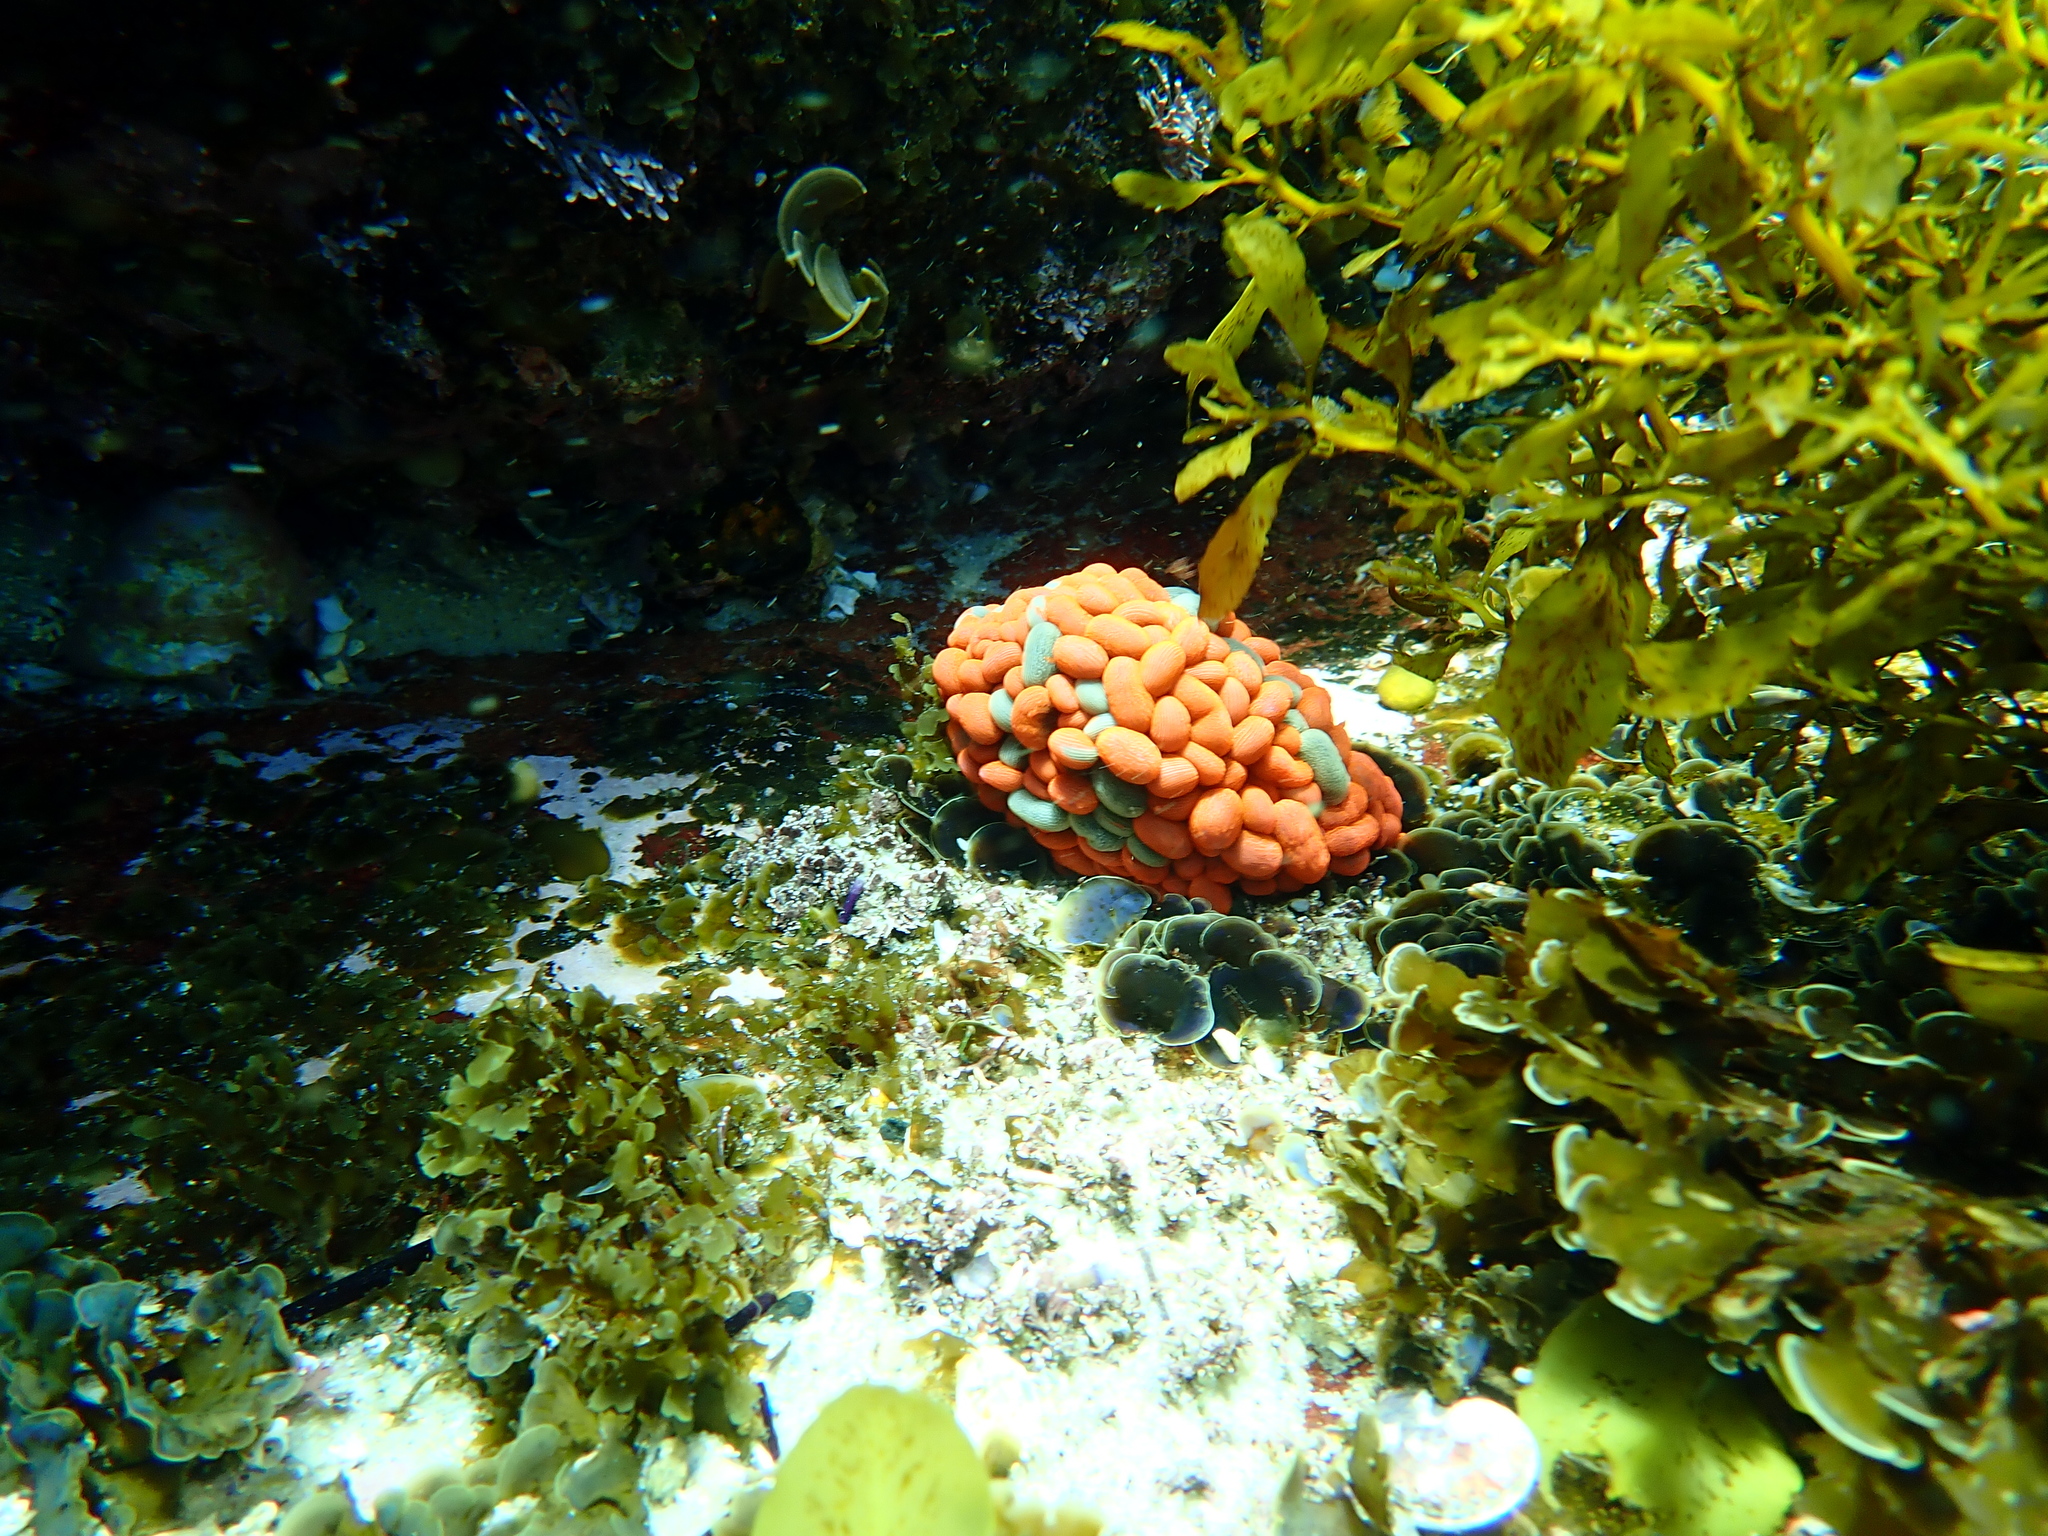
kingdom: Animalia
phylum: Cnidaria
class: Anthozoa
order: Actiniaria
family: Actiniidae
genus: Phlyctenactis
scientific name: Phlyctenactis tuberculosa
